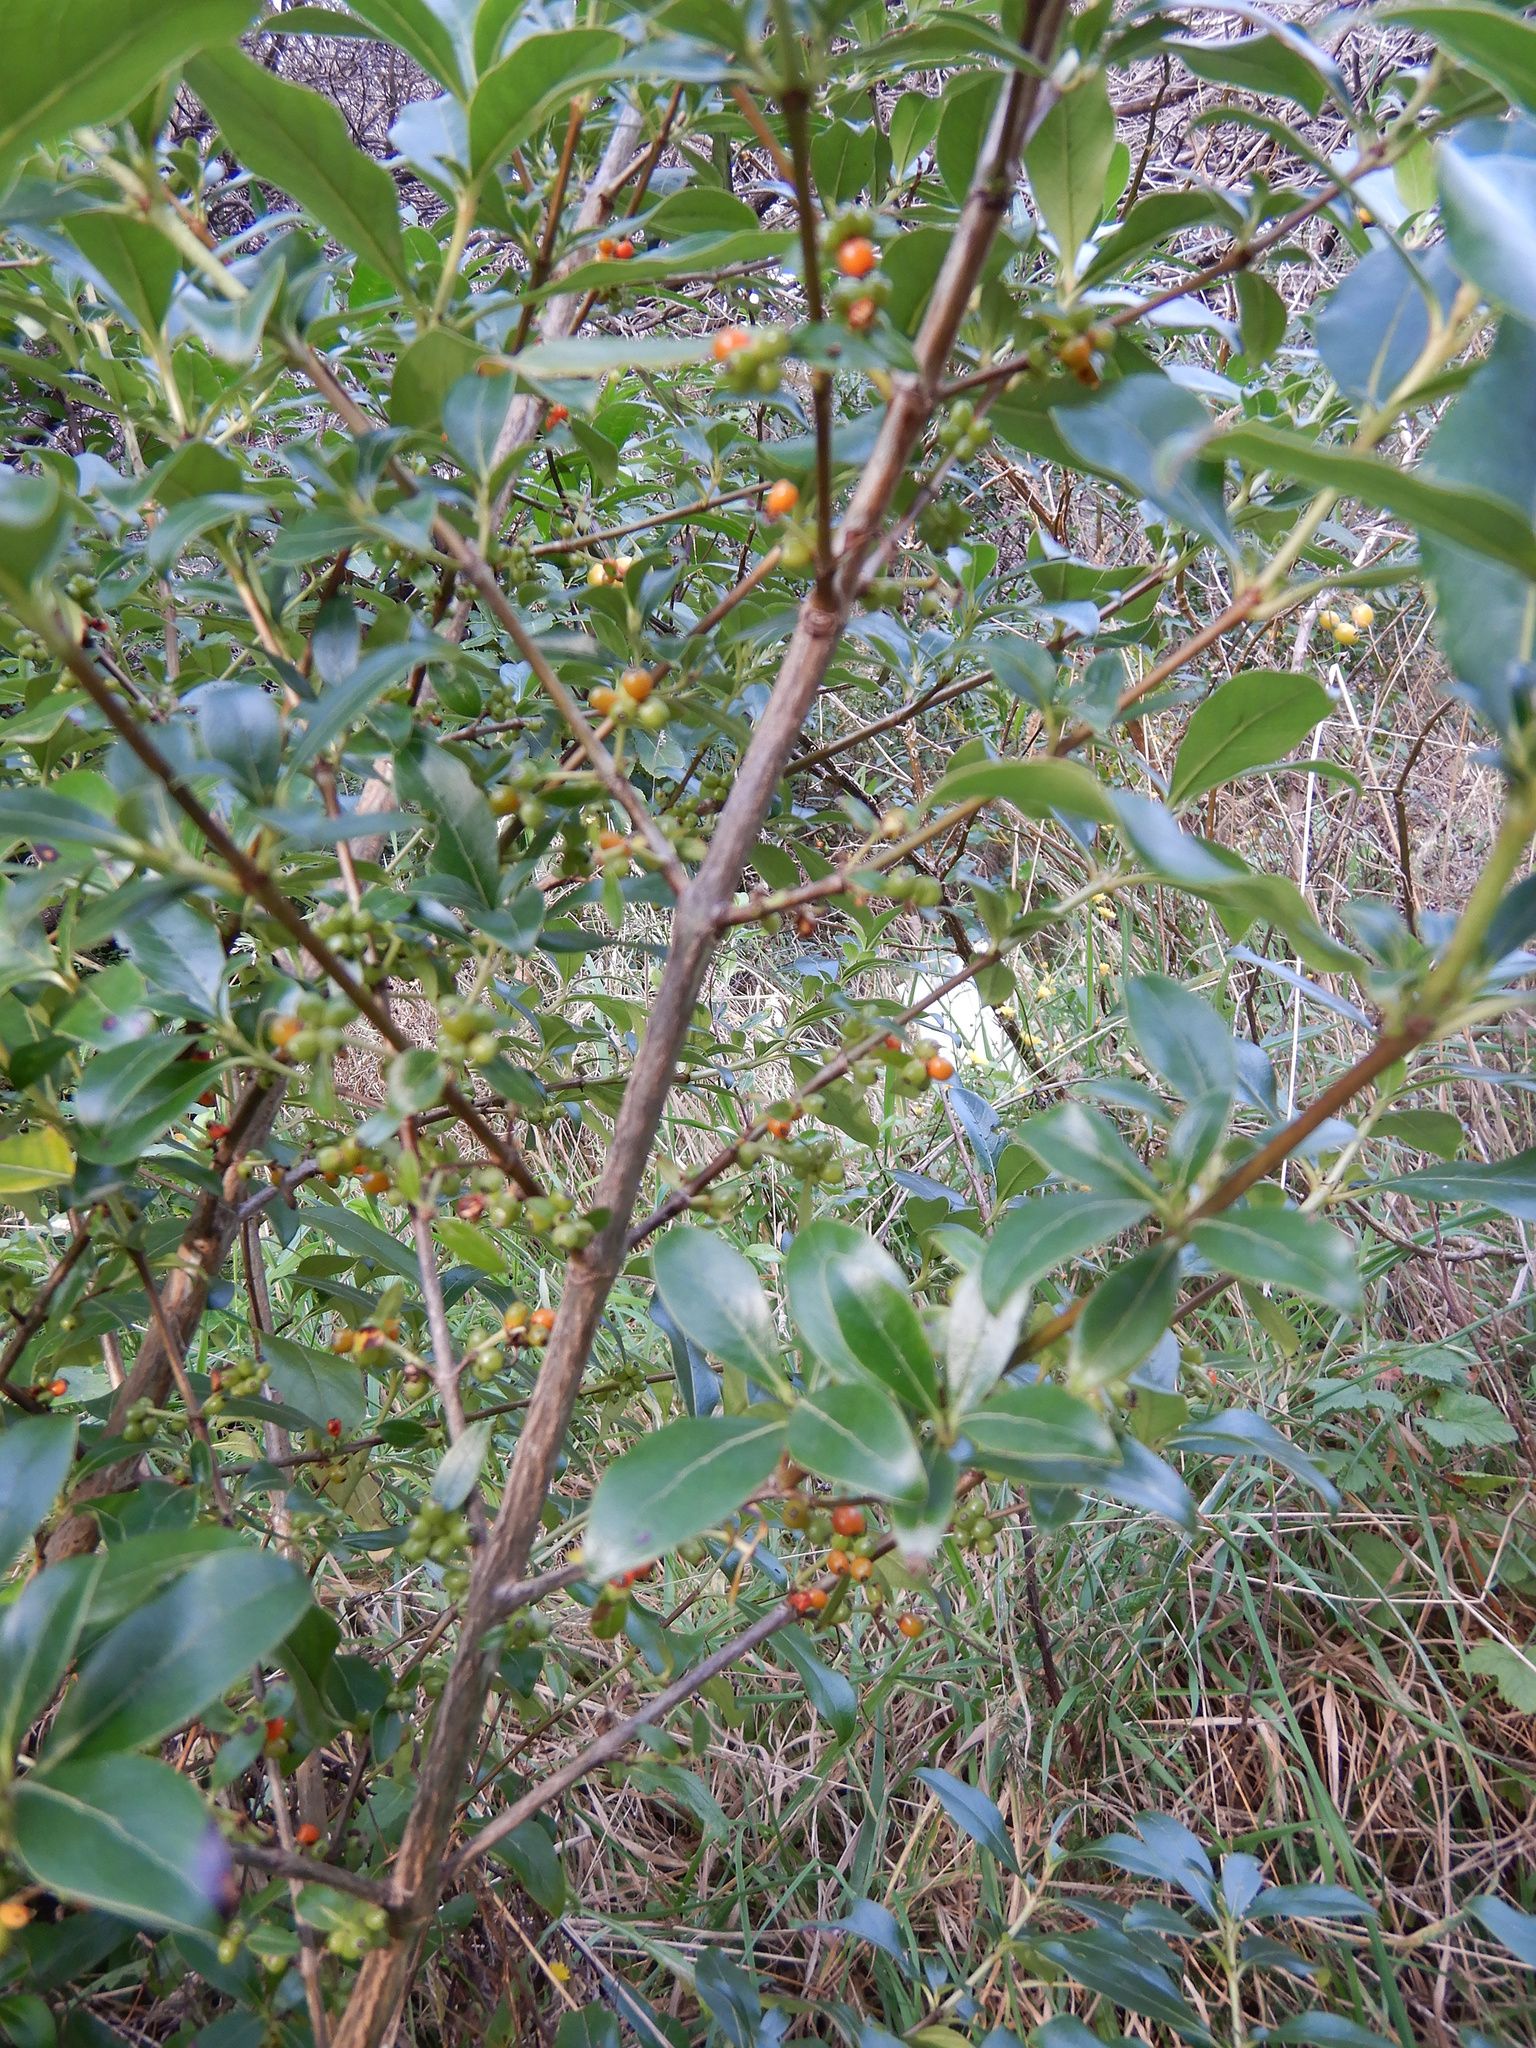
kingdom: Plantae
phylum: Tracheophyta
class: Magnoliopsida
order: Gentianales
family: Rubiaceae
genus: Coprosma
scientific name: Coprosma lucida
